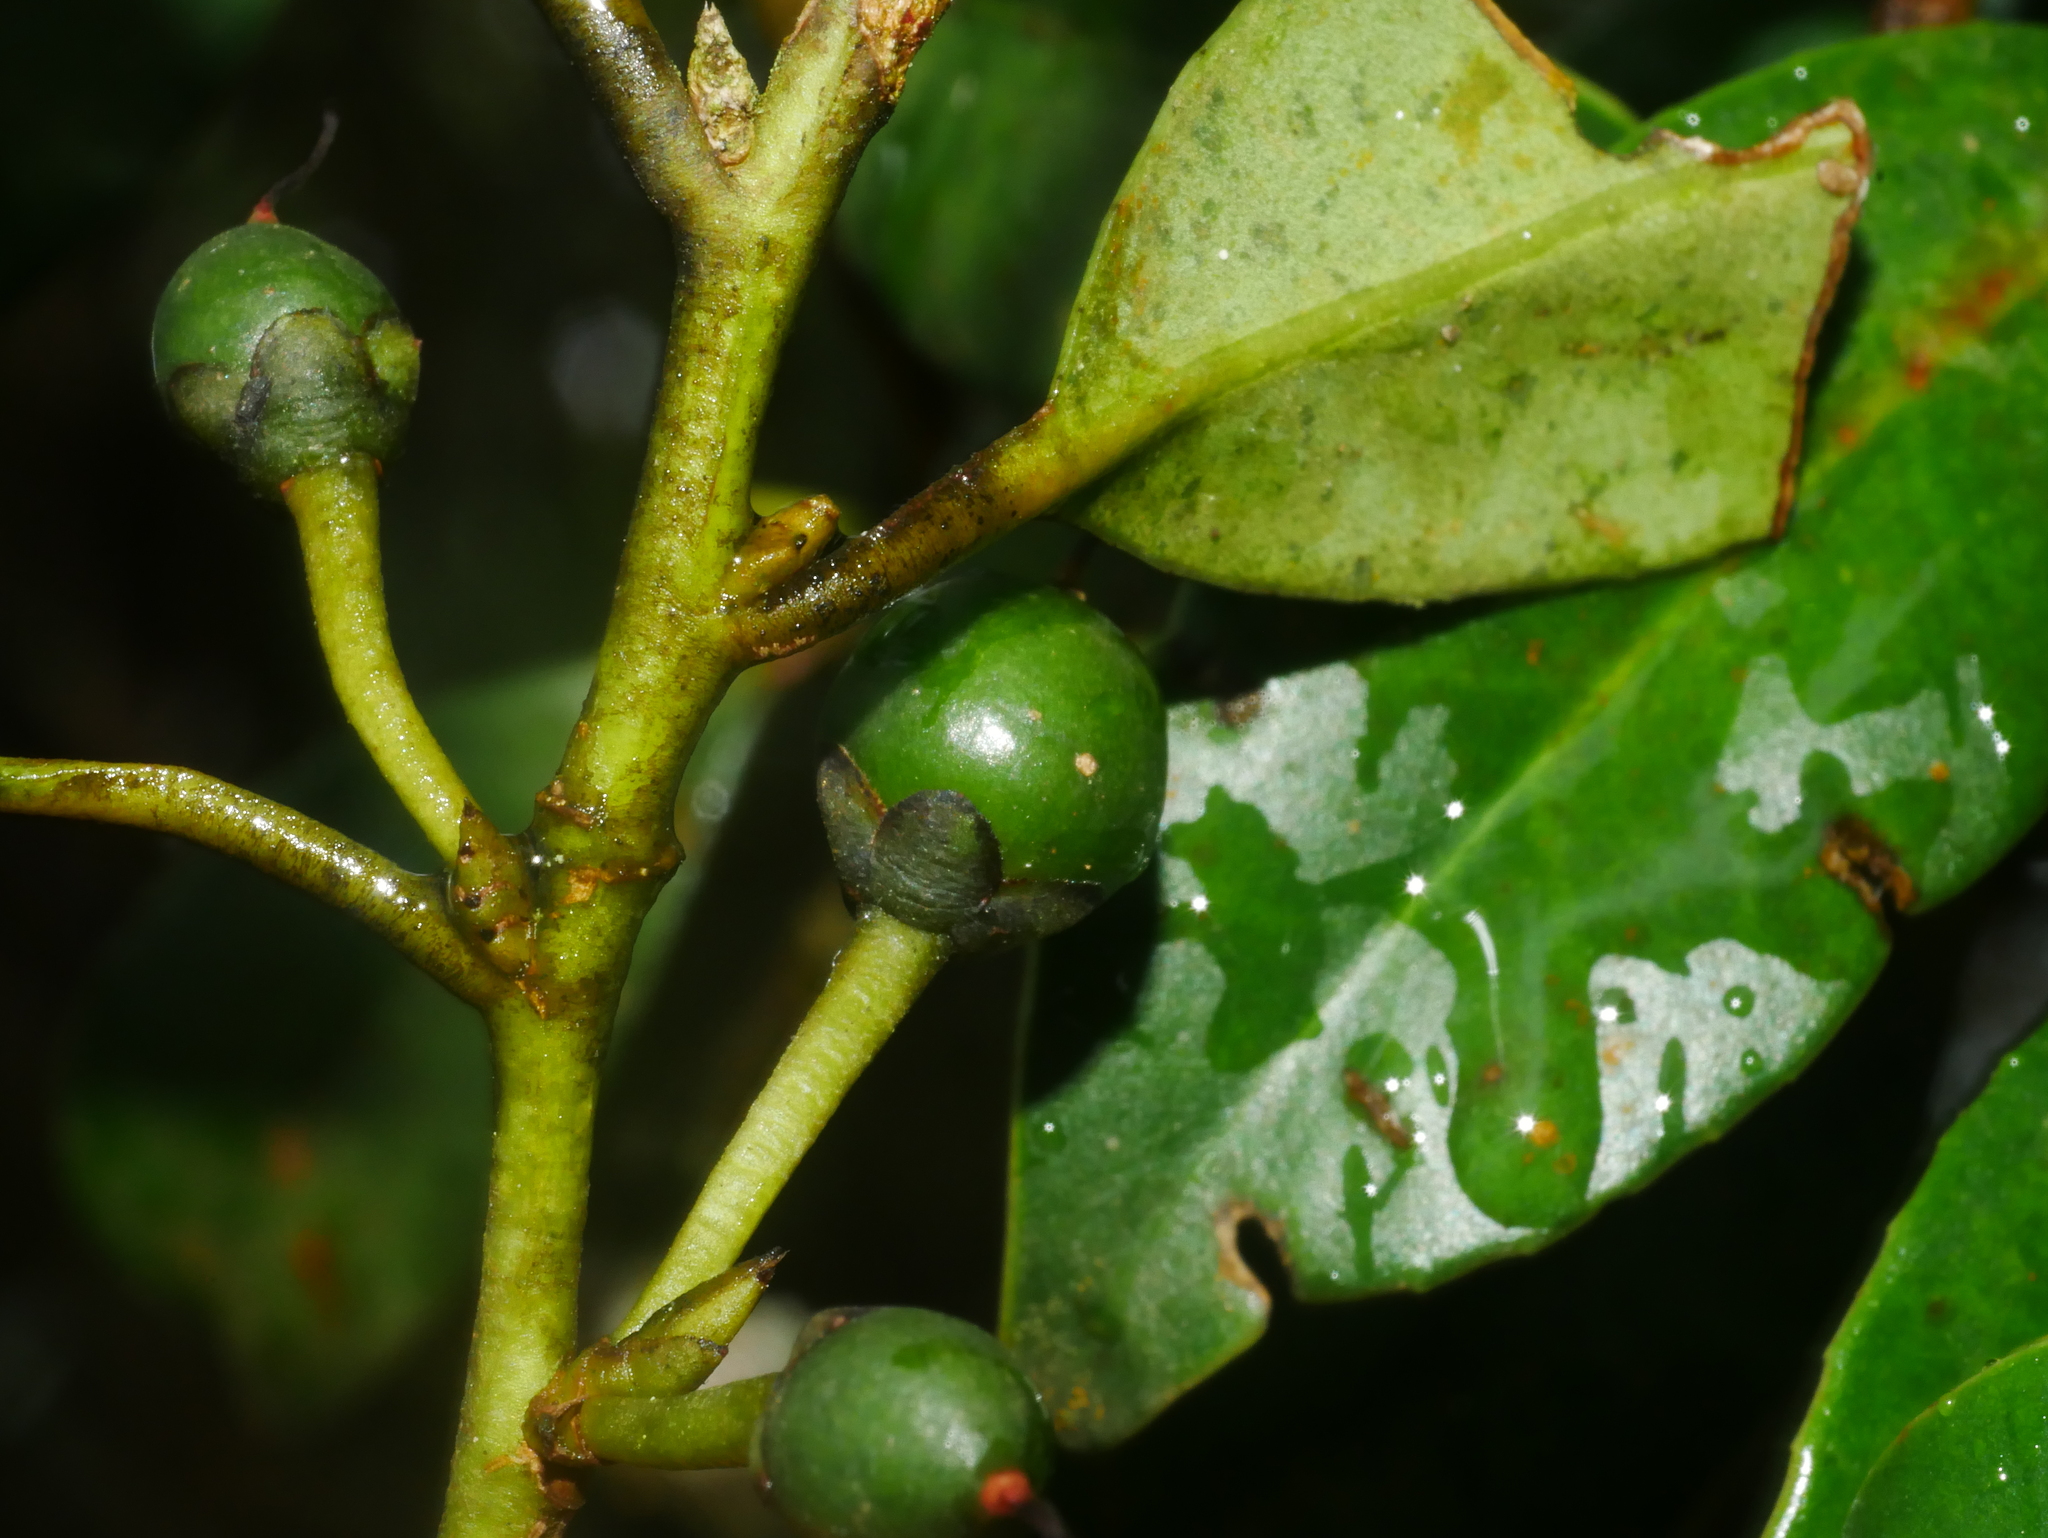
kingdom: Plantae
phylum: Tracheophyta
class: Magnoliopsida
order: Ericales
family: Pentaphylacaceae
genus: Cleyera
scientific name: Cleyera japonica
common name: Sakaki
